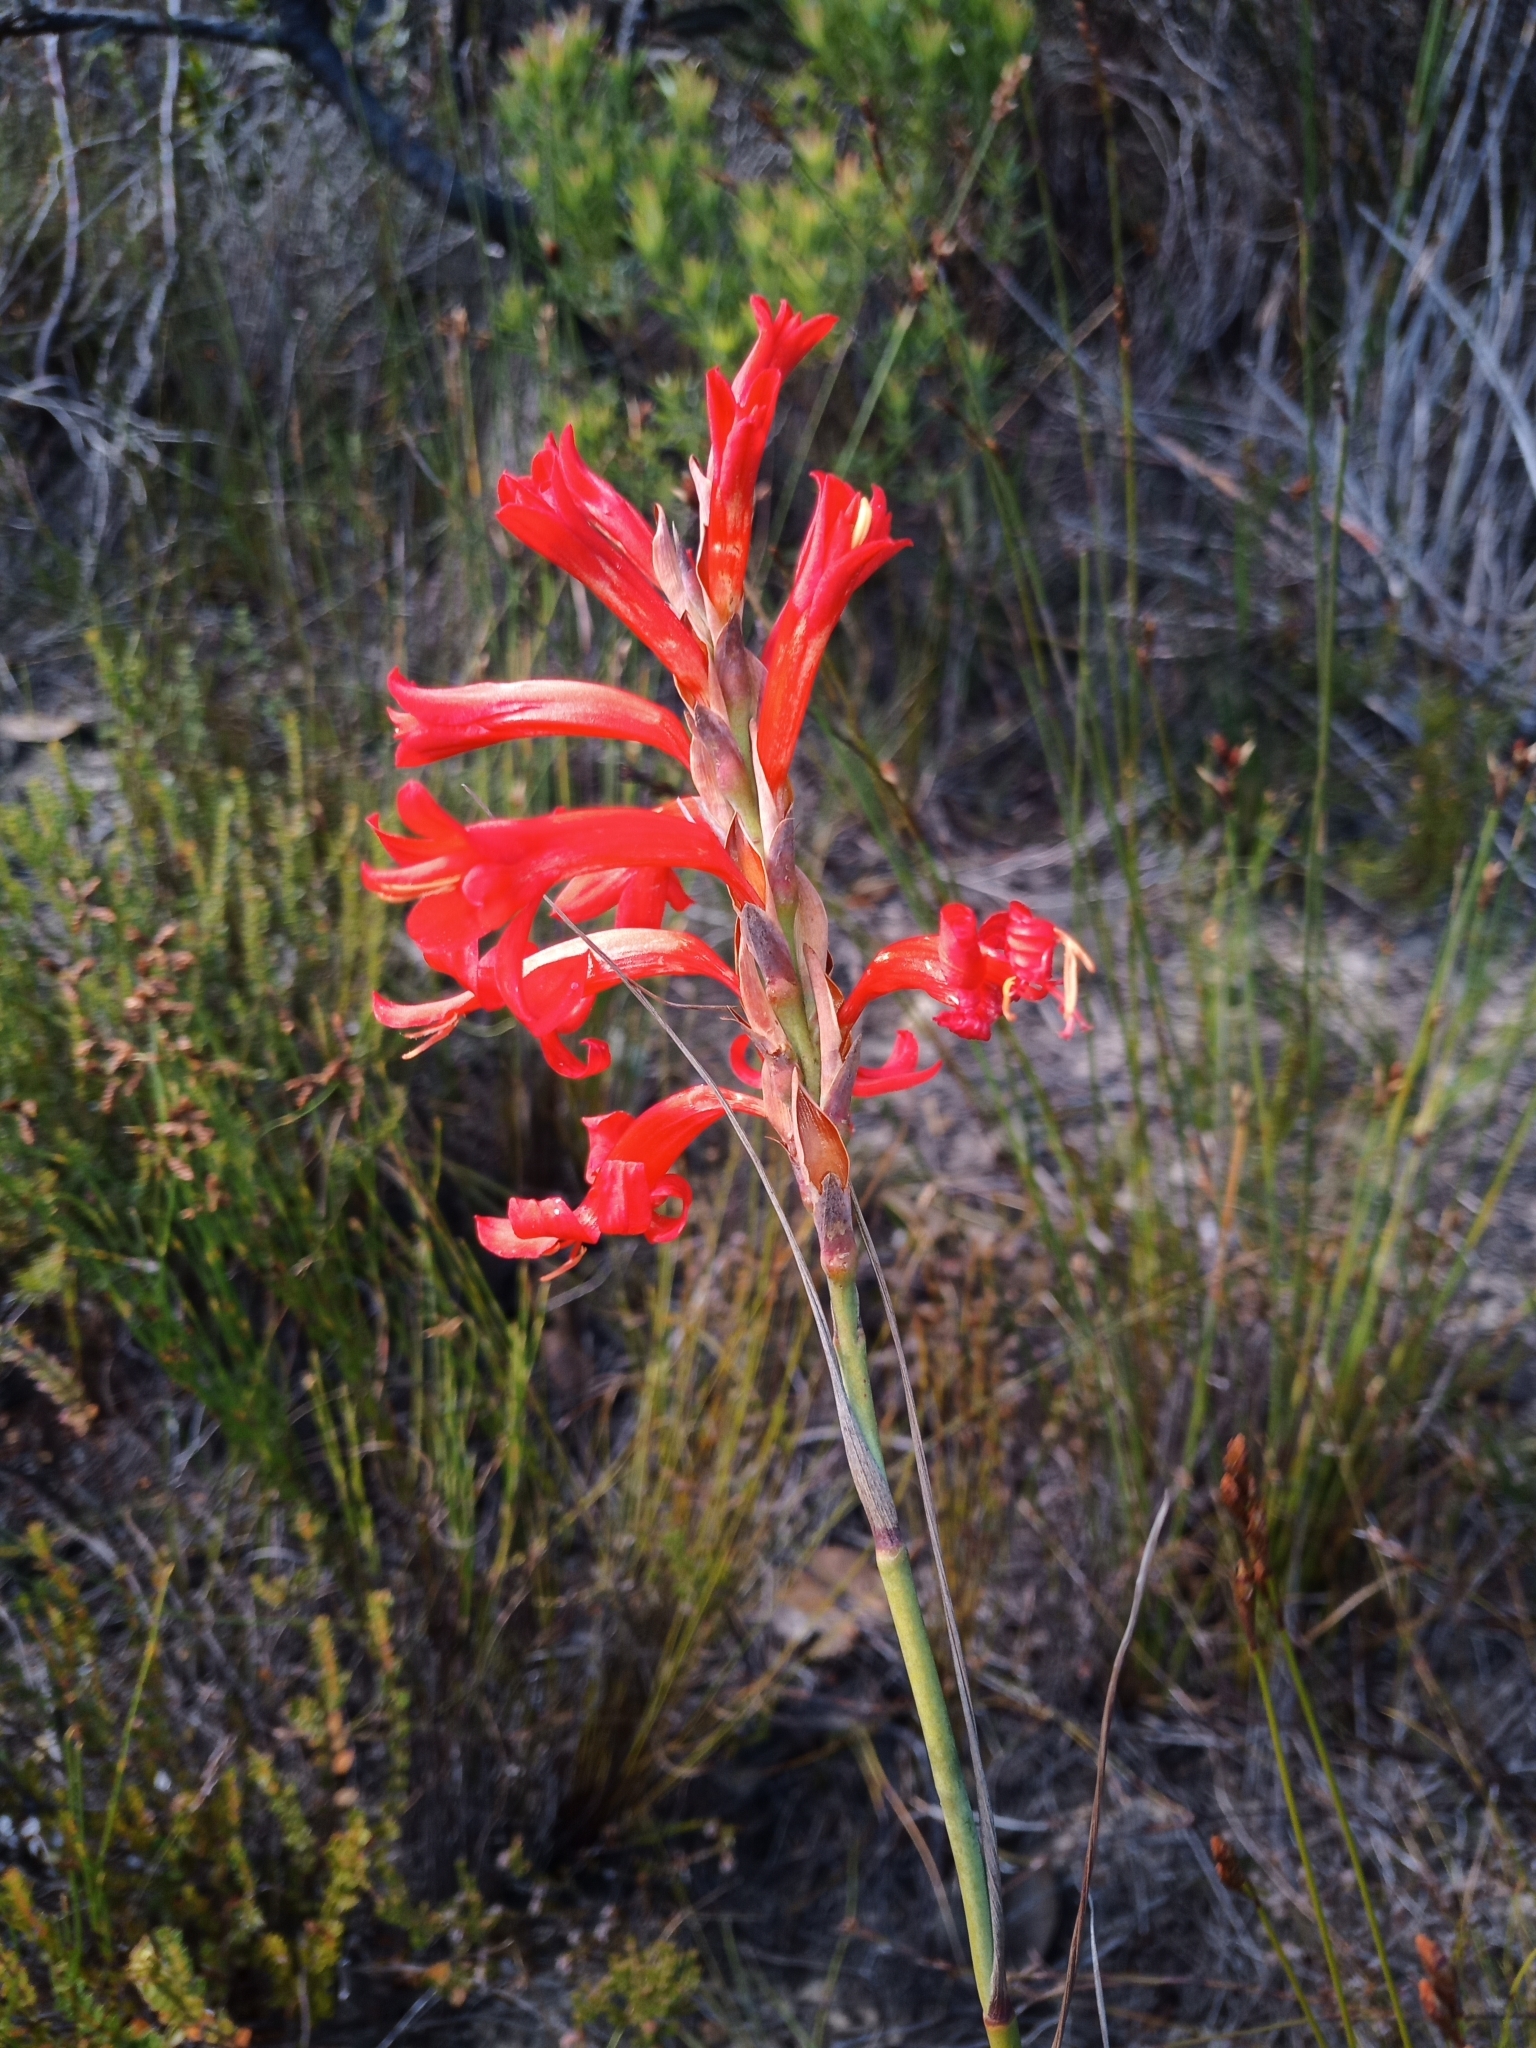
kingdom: Plantae
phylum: Tracheophyta
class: Liliopsida
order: Asparagales
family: Iridaceae
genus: Tritoniopsis
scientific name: Tritoniopsis triticea
